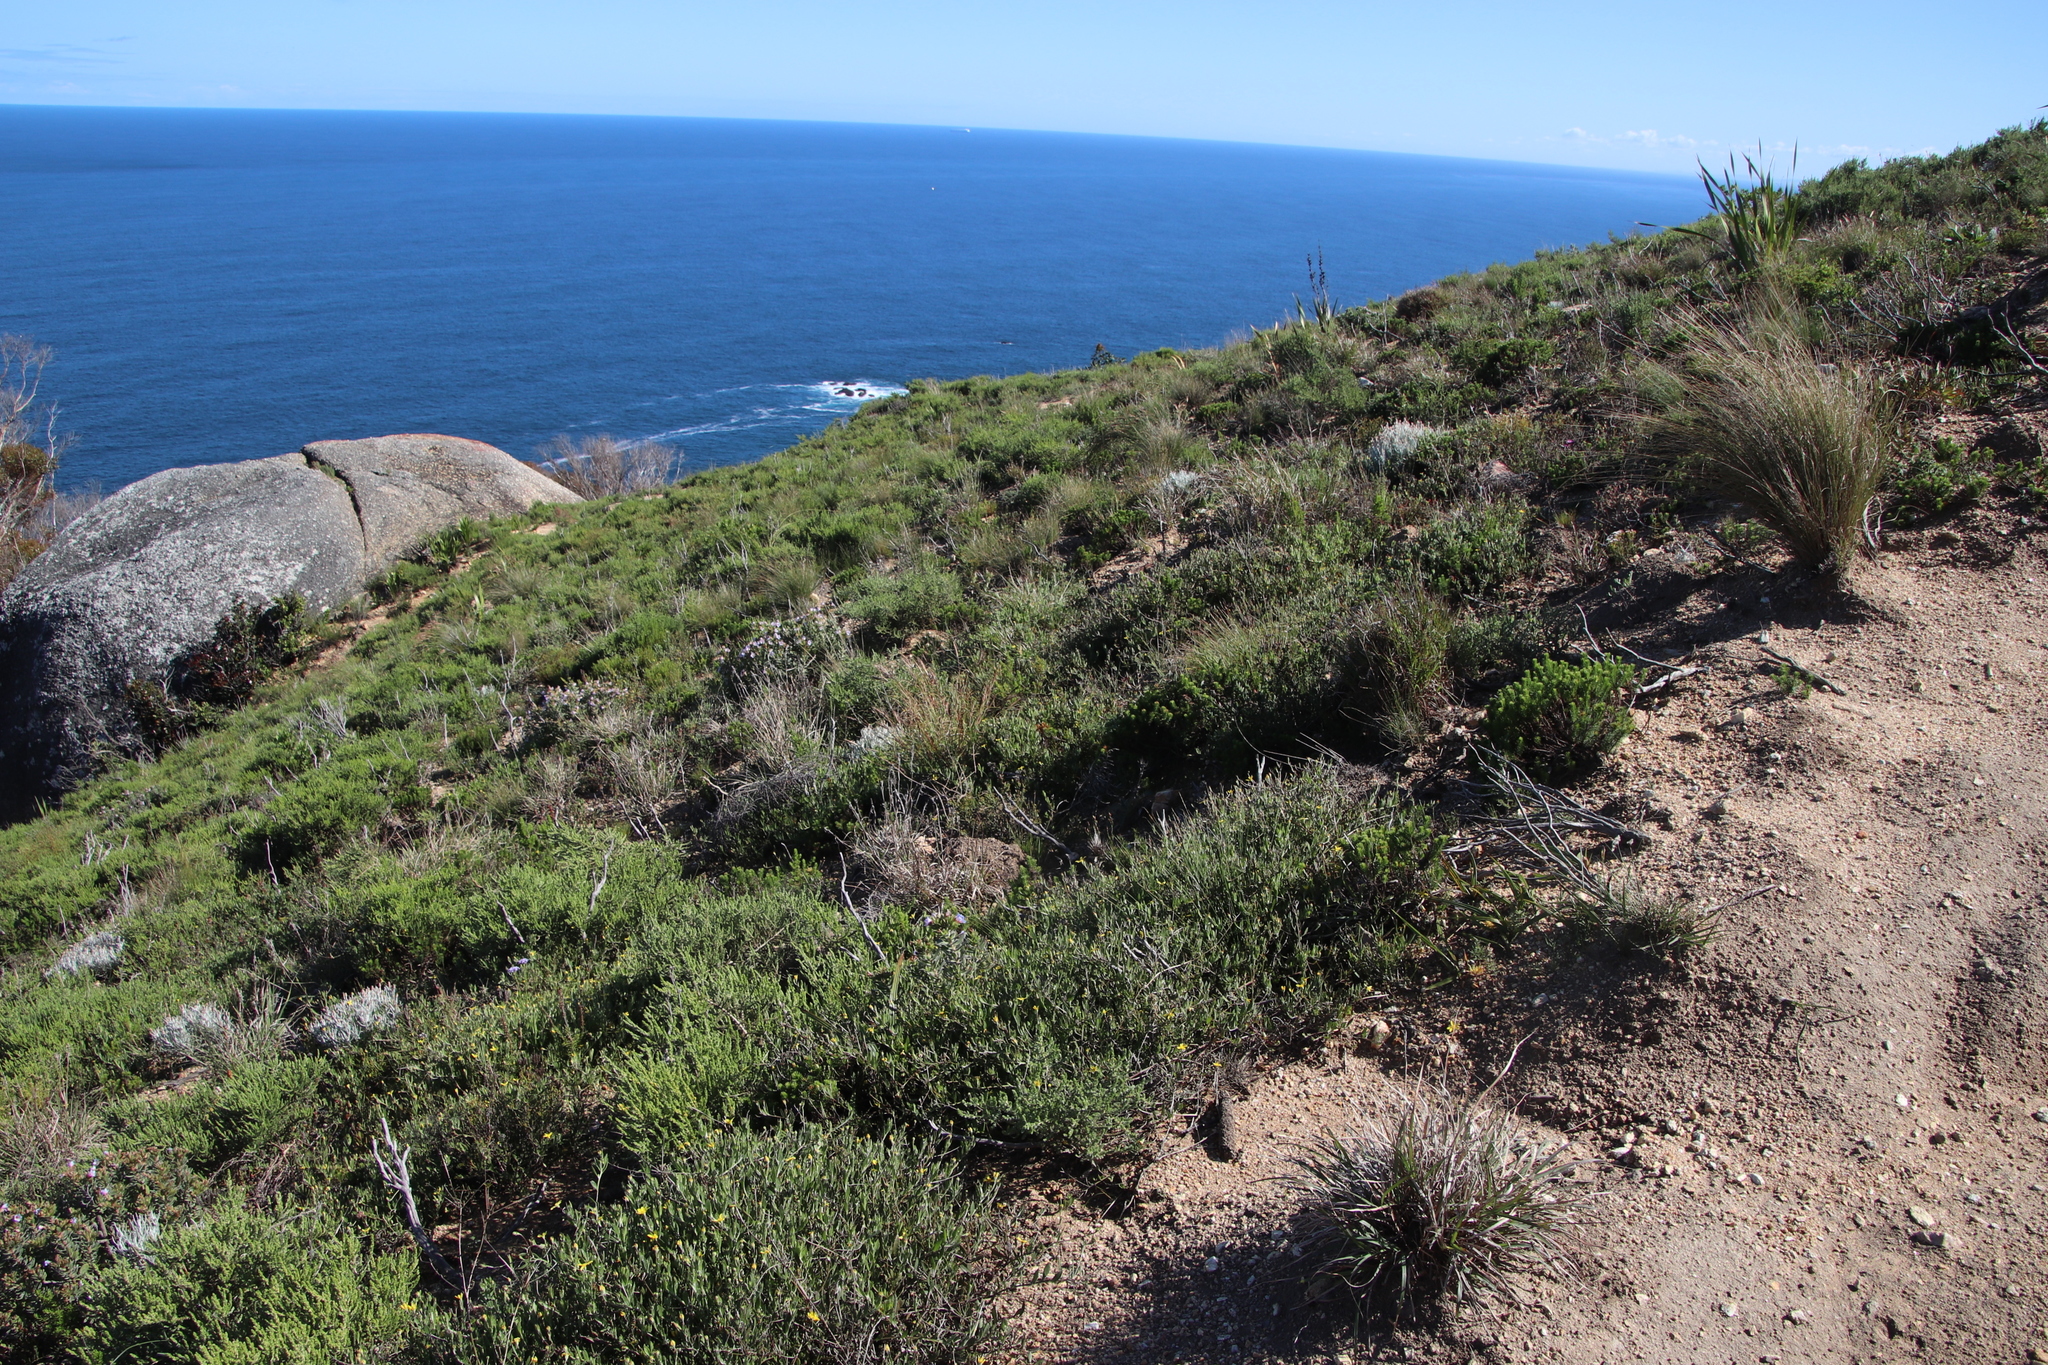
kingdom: Plantae
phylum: Tracheophyta
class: Magnoliopsida
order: Asterales
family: Asteraceae
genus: Osteospermum
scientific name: Osteospermum ciliatum
